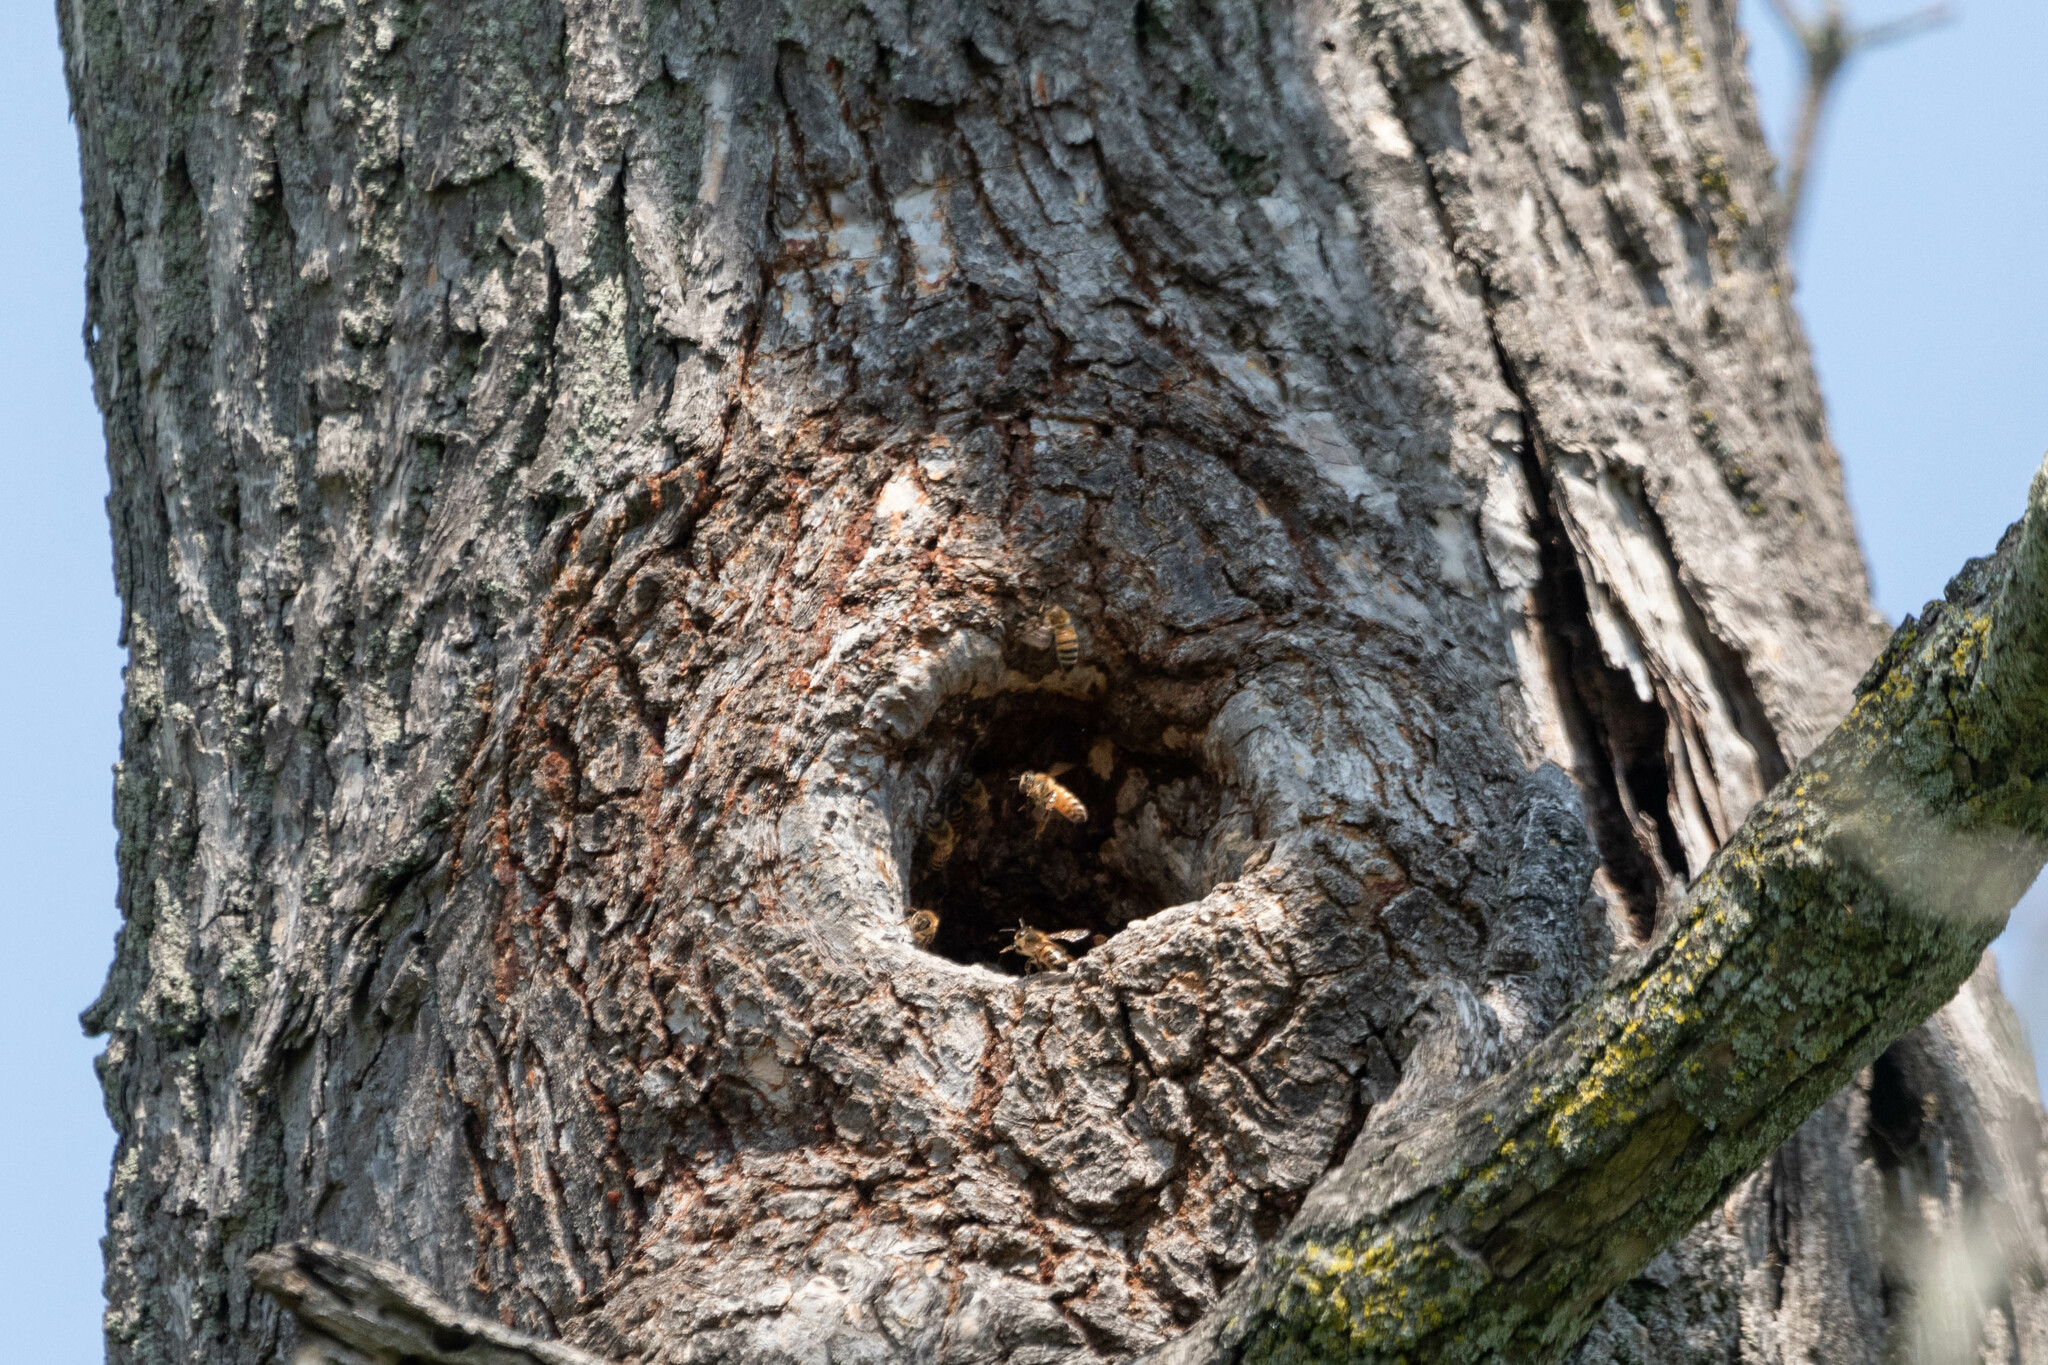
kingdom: Animalia
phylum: Arthropoda
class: Insecta
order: Hymenoptera
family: Apidae
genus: Apis
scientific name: Apis mellifera
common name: Honey bee
